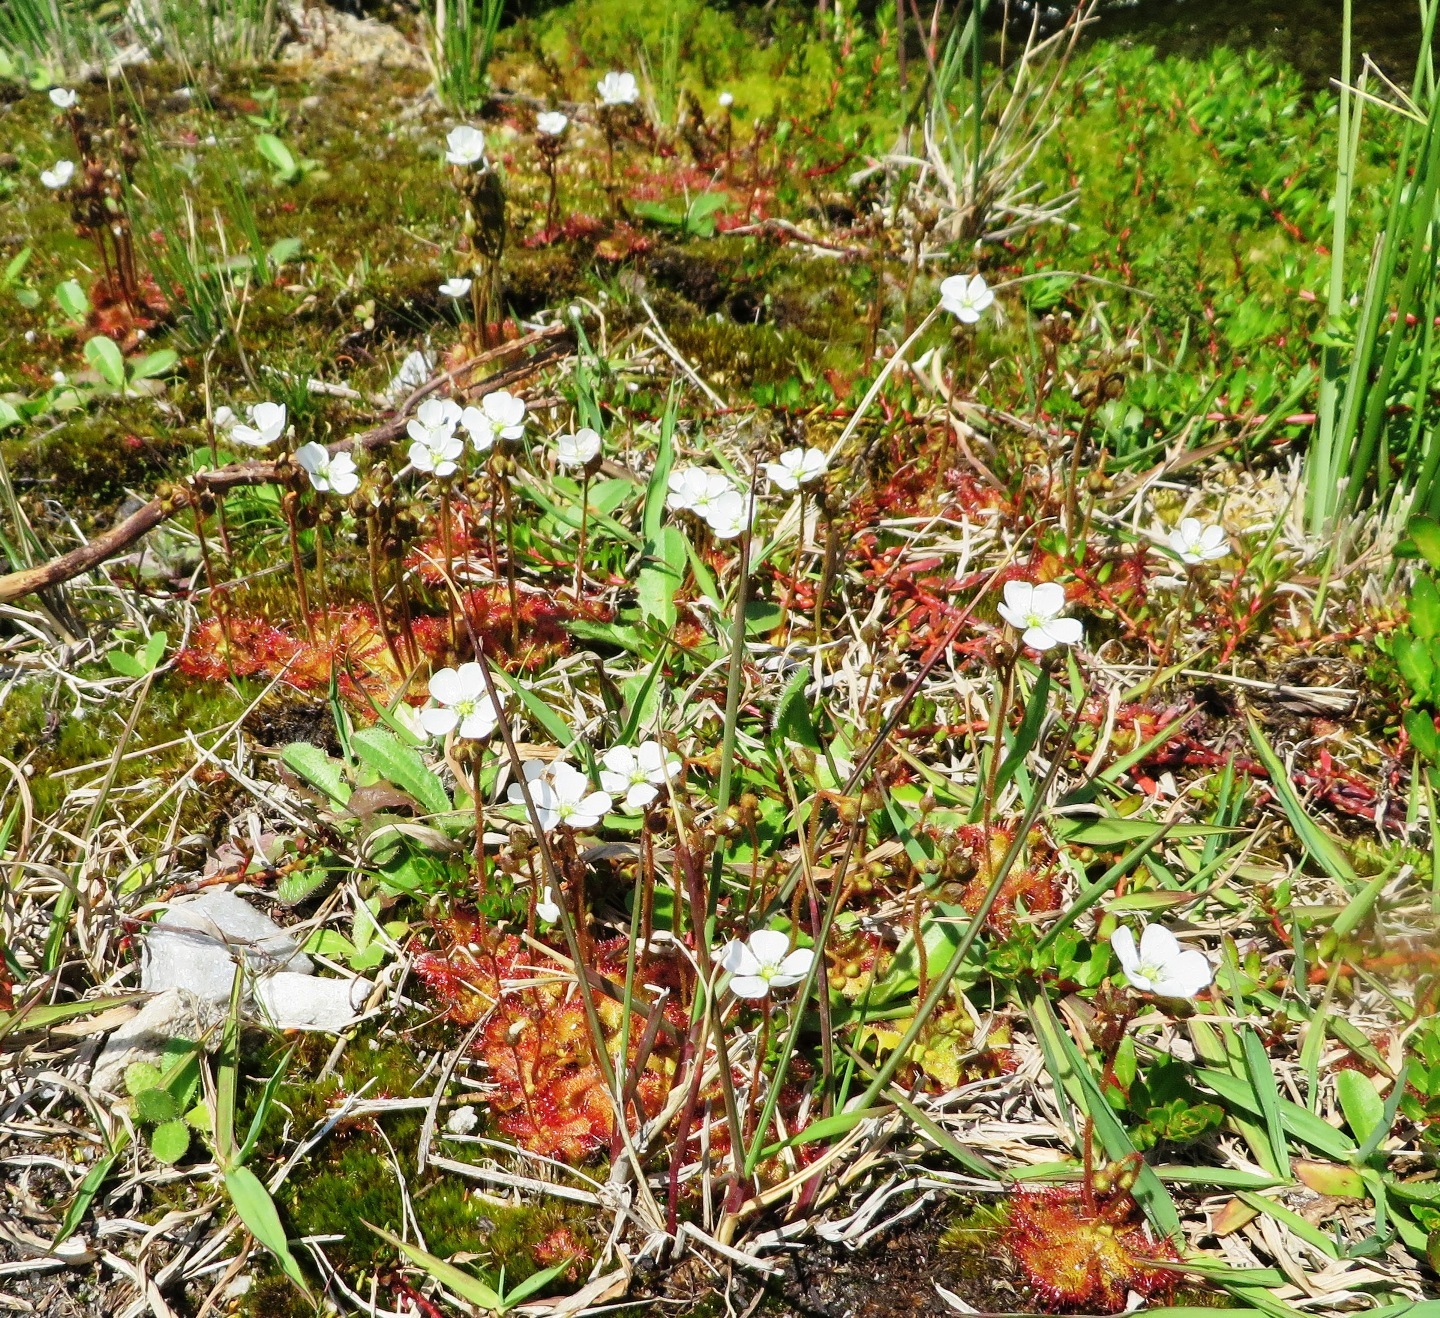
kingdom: Plantae
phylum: Tracheophyta
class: Magnoliopsida
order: Caryophyllales
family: Droseraceae
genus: Drosera
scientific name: Drosera trinervia
